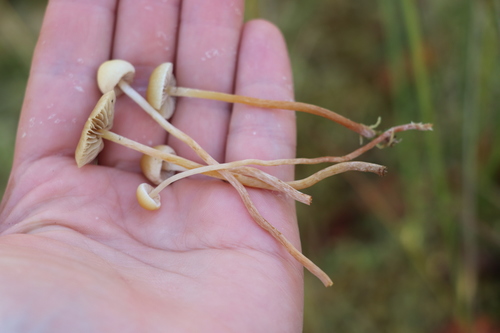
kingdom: Fungi
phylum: Basidiomycota
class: Agaricomycetes
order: Agaricales
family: Strophariaceae
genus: Hypholoma
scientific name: Hypholoma elongatum
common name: Sphagnum brownie
